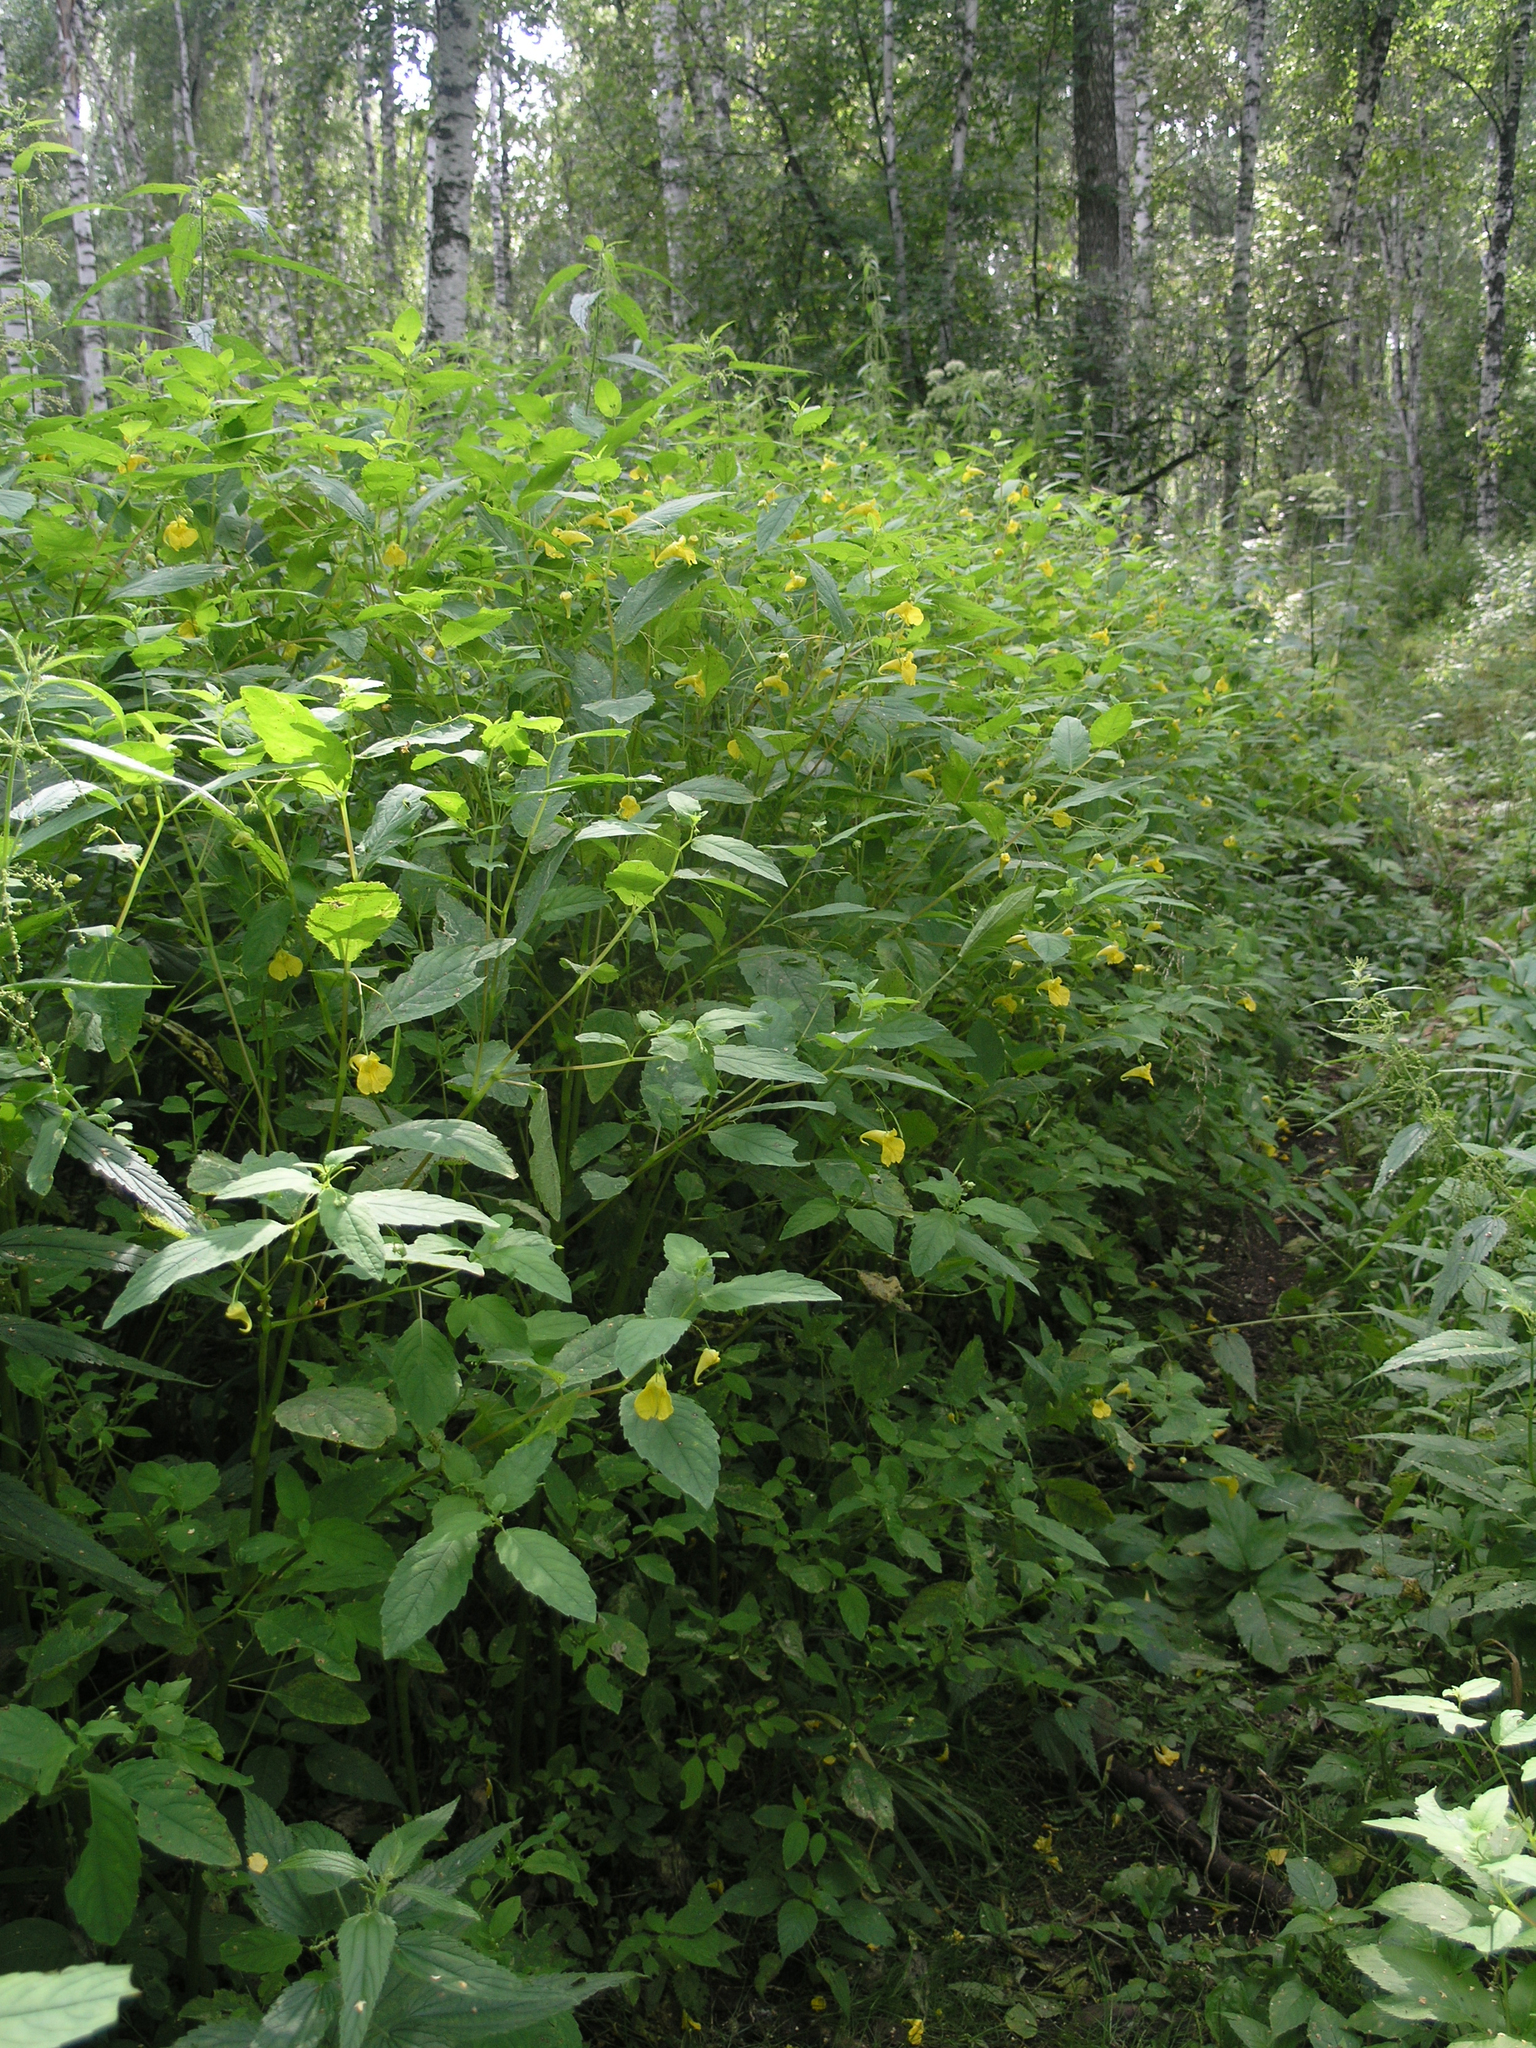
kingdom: Plantae
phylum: Tracheophyta
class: Magnoliopsida
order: Ericales
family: Balsaminaceae
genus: Impatiens
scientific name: Impatiens noli-tangere
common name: Touch-me-not balsam
